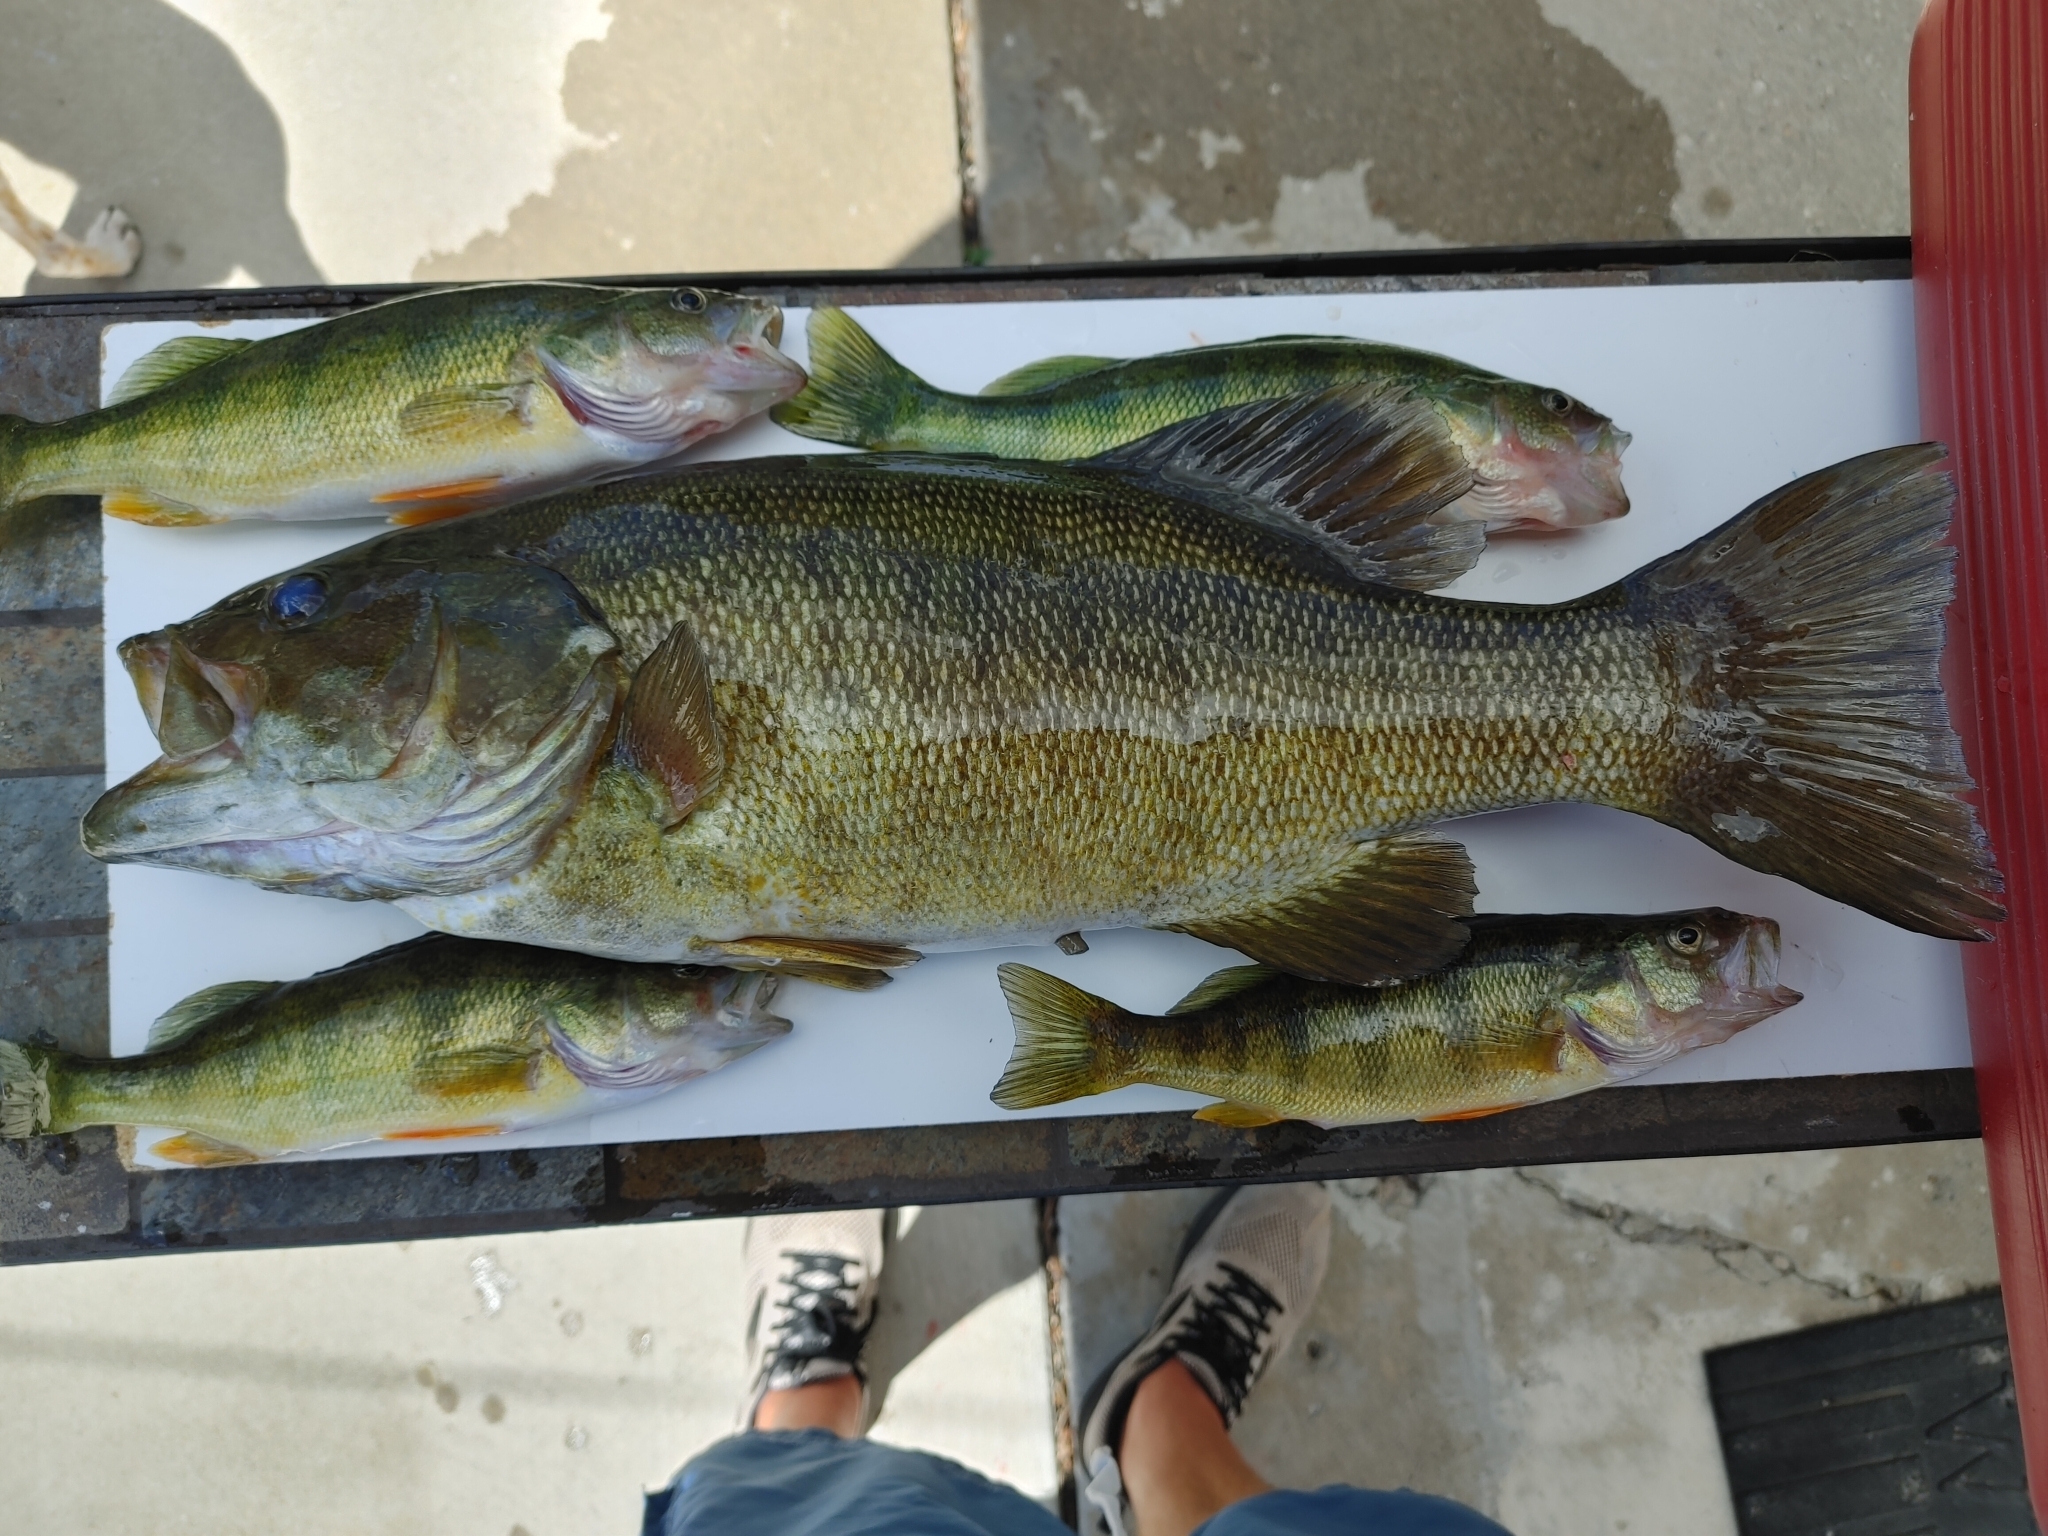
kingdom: Animalia
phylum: Chordata
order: Perciformes
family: Centrarchidae
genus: Micropterus
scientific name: Micropterus dolomieu
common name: Smallmouth bass
